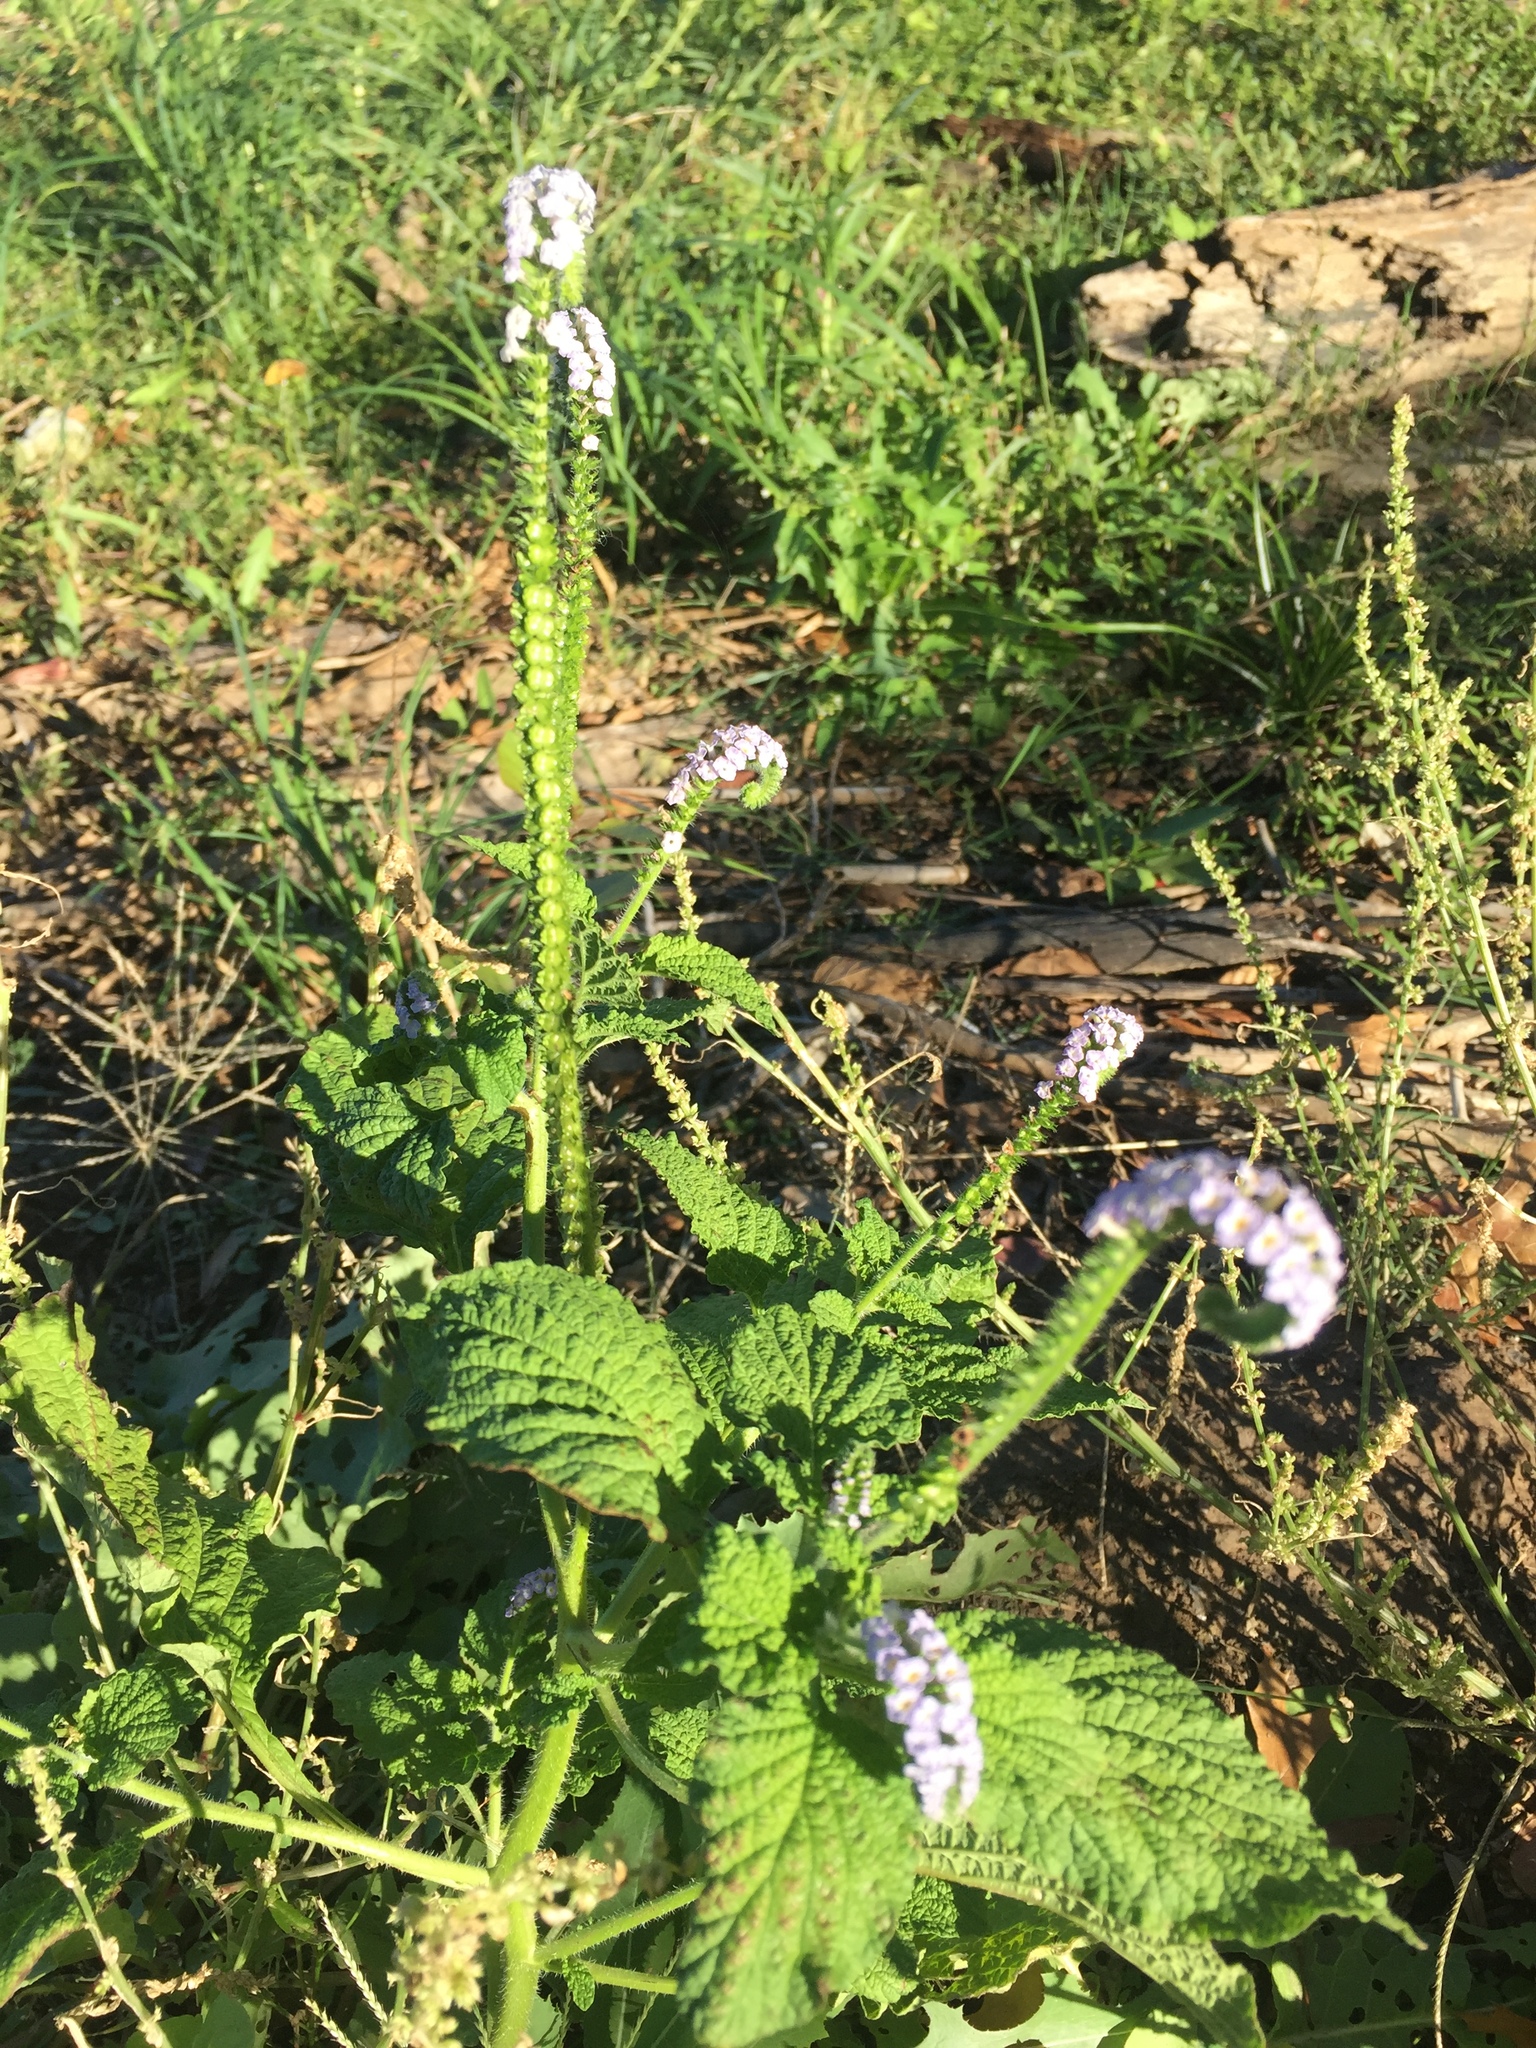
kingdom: Plantae
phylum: Tracheophyta
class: Magnoliopsida
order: Boraginales
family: Heliotropiaceae
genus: Heliotropium
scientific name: Heliotropium indicum
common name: Indian heliotrope
